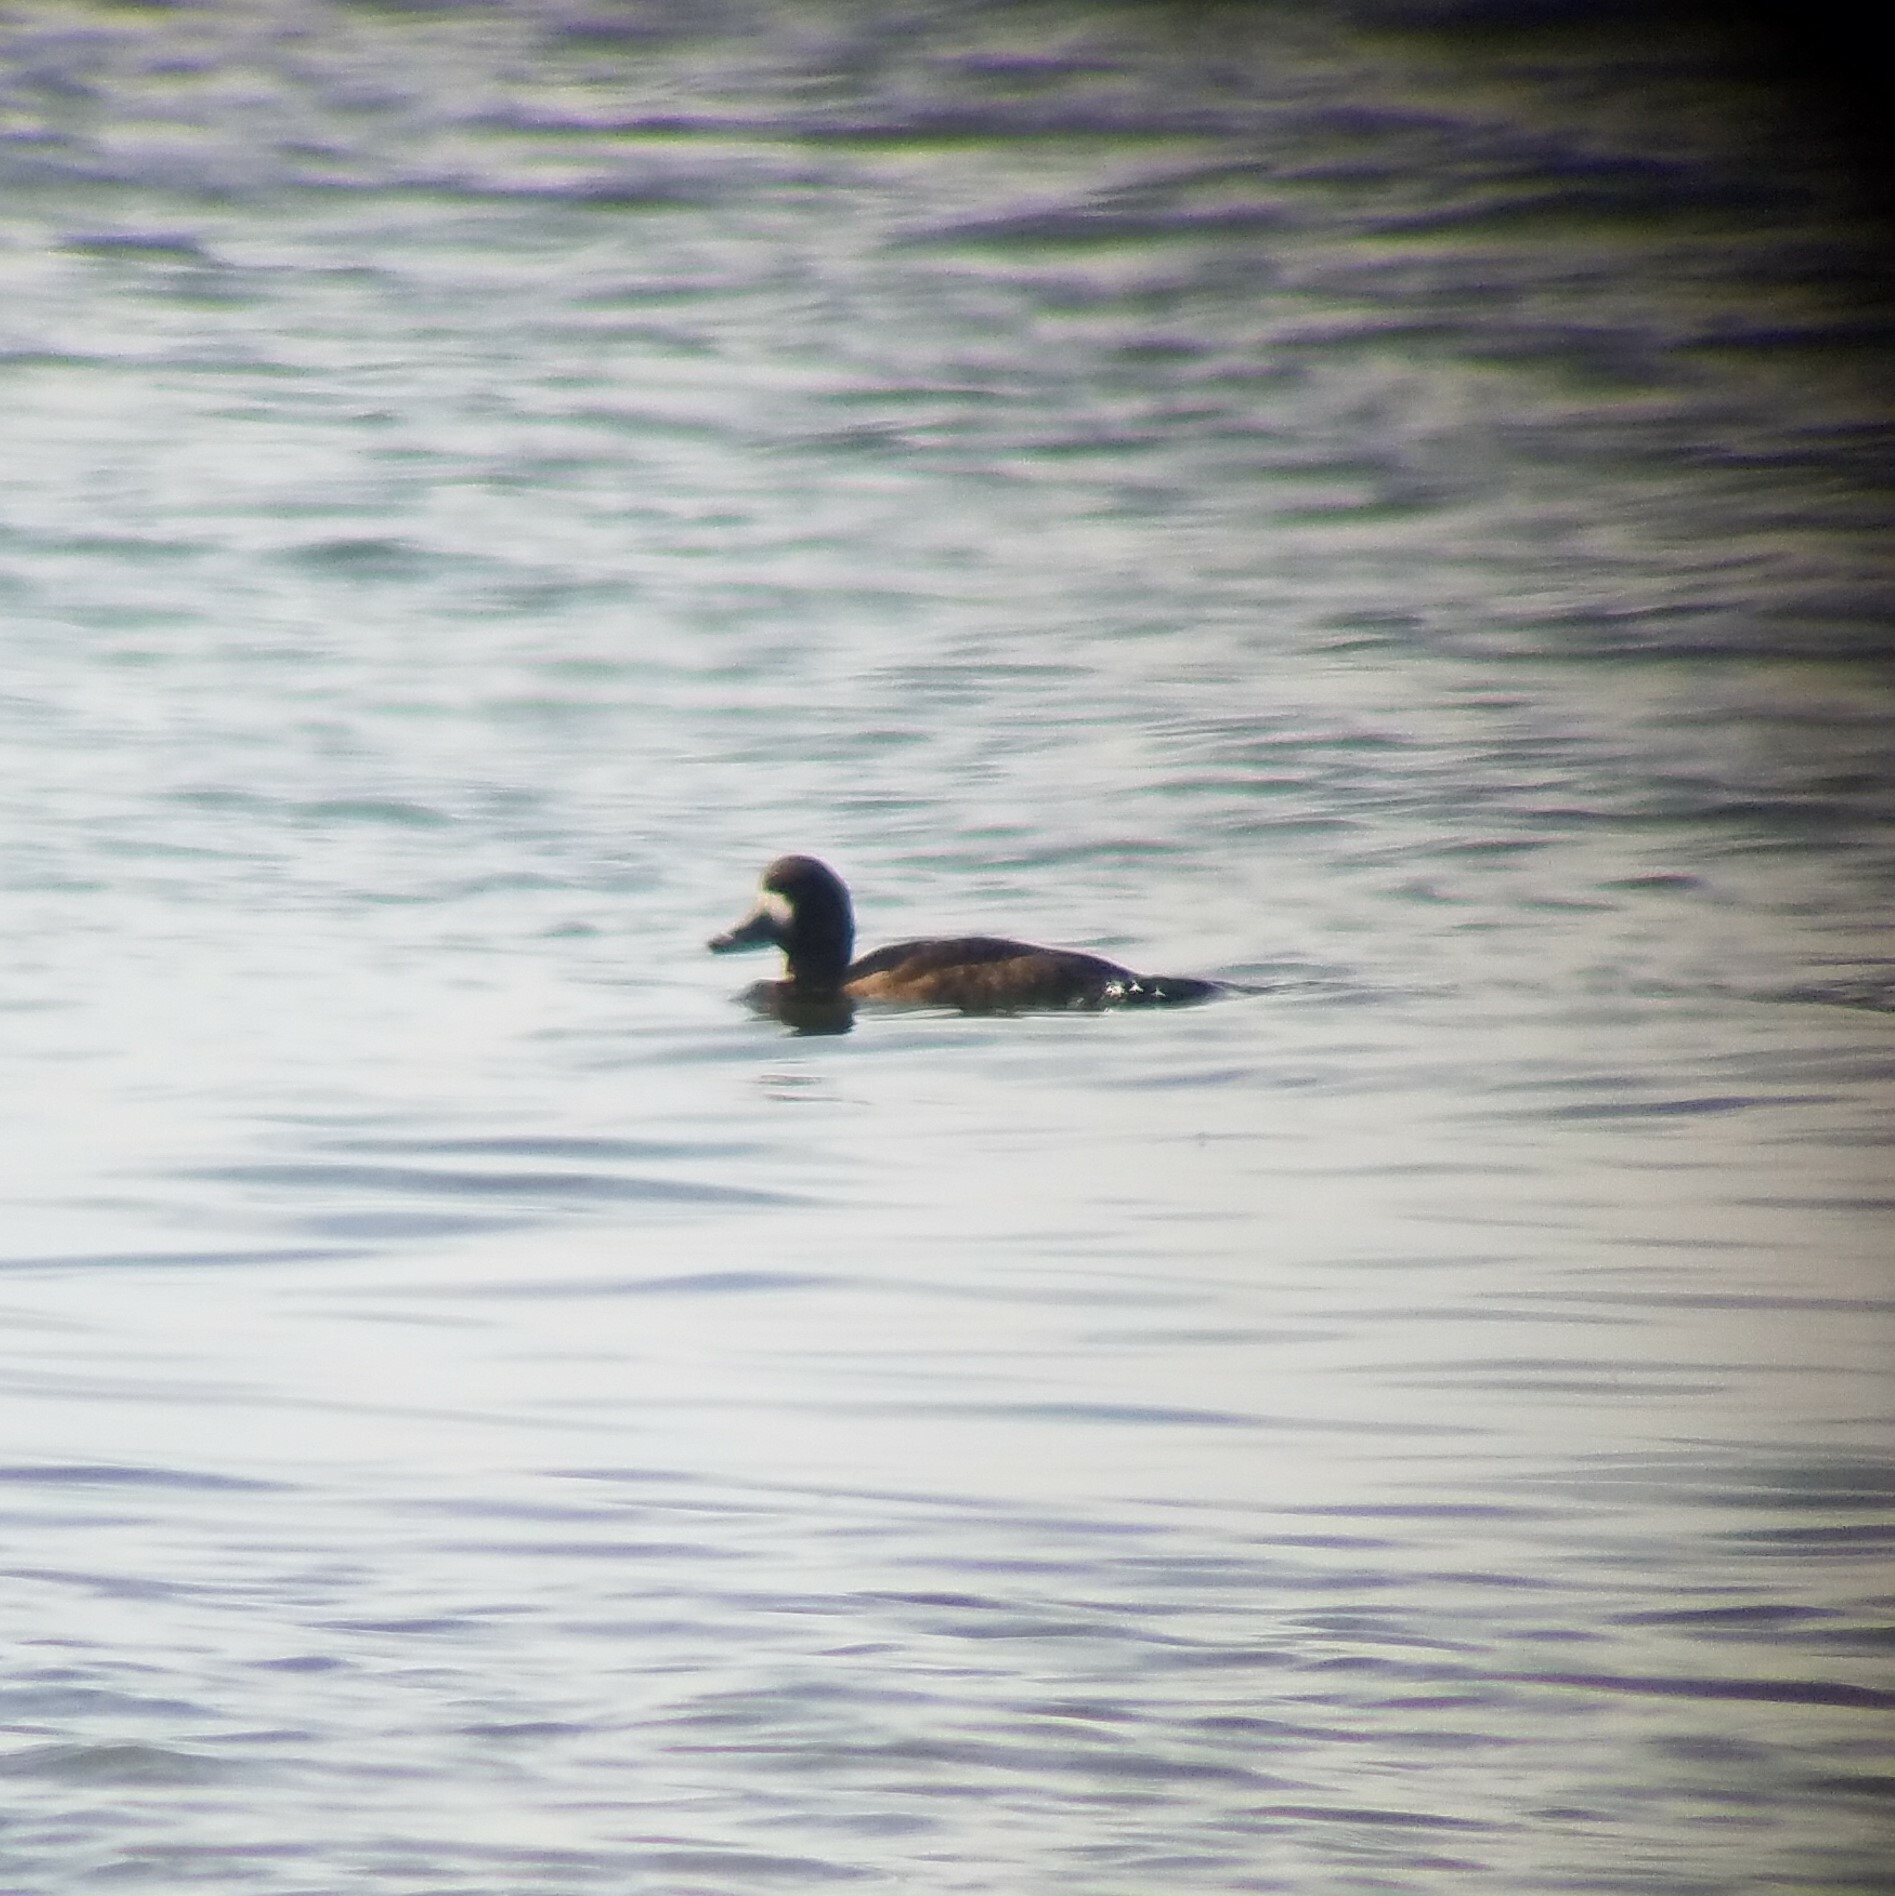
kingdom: Animalia
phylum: Chordata
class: Aves
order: Anseriformes
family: Anatidae
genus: Aythya
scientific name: Aythya marila
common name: Greater scaup
